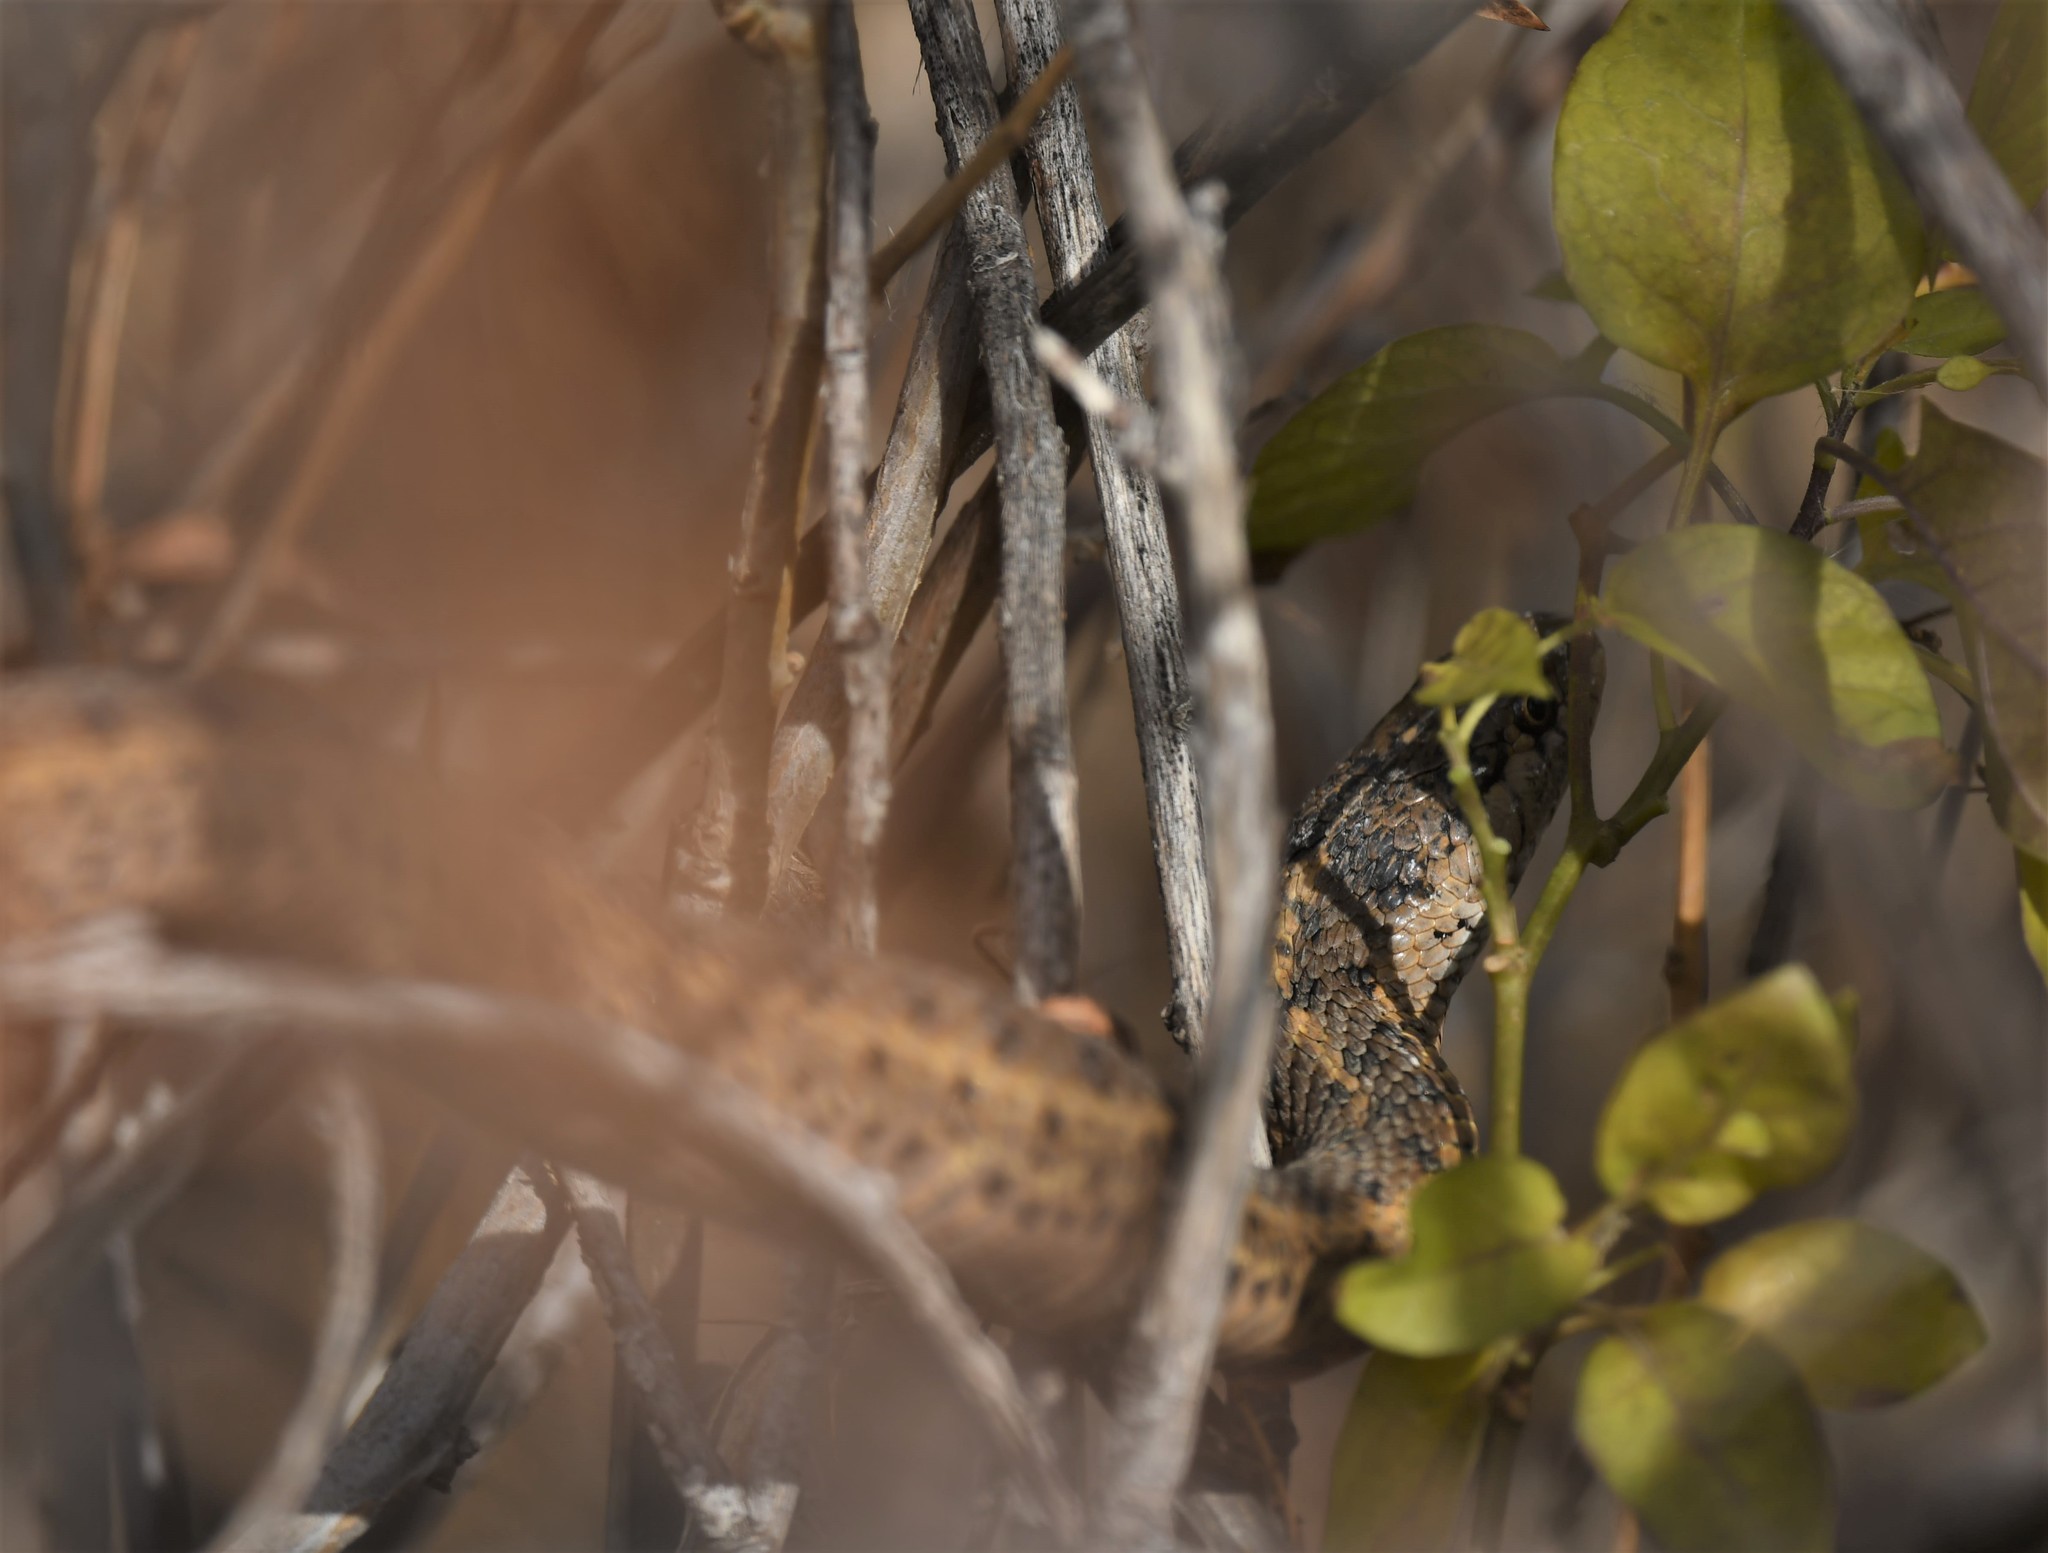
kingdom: Animalia
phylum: Chordata
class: Squamata
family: Colubridae
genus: Thamnophis
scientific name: Thamnophis elegans
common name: Western terrestrial garter snake
